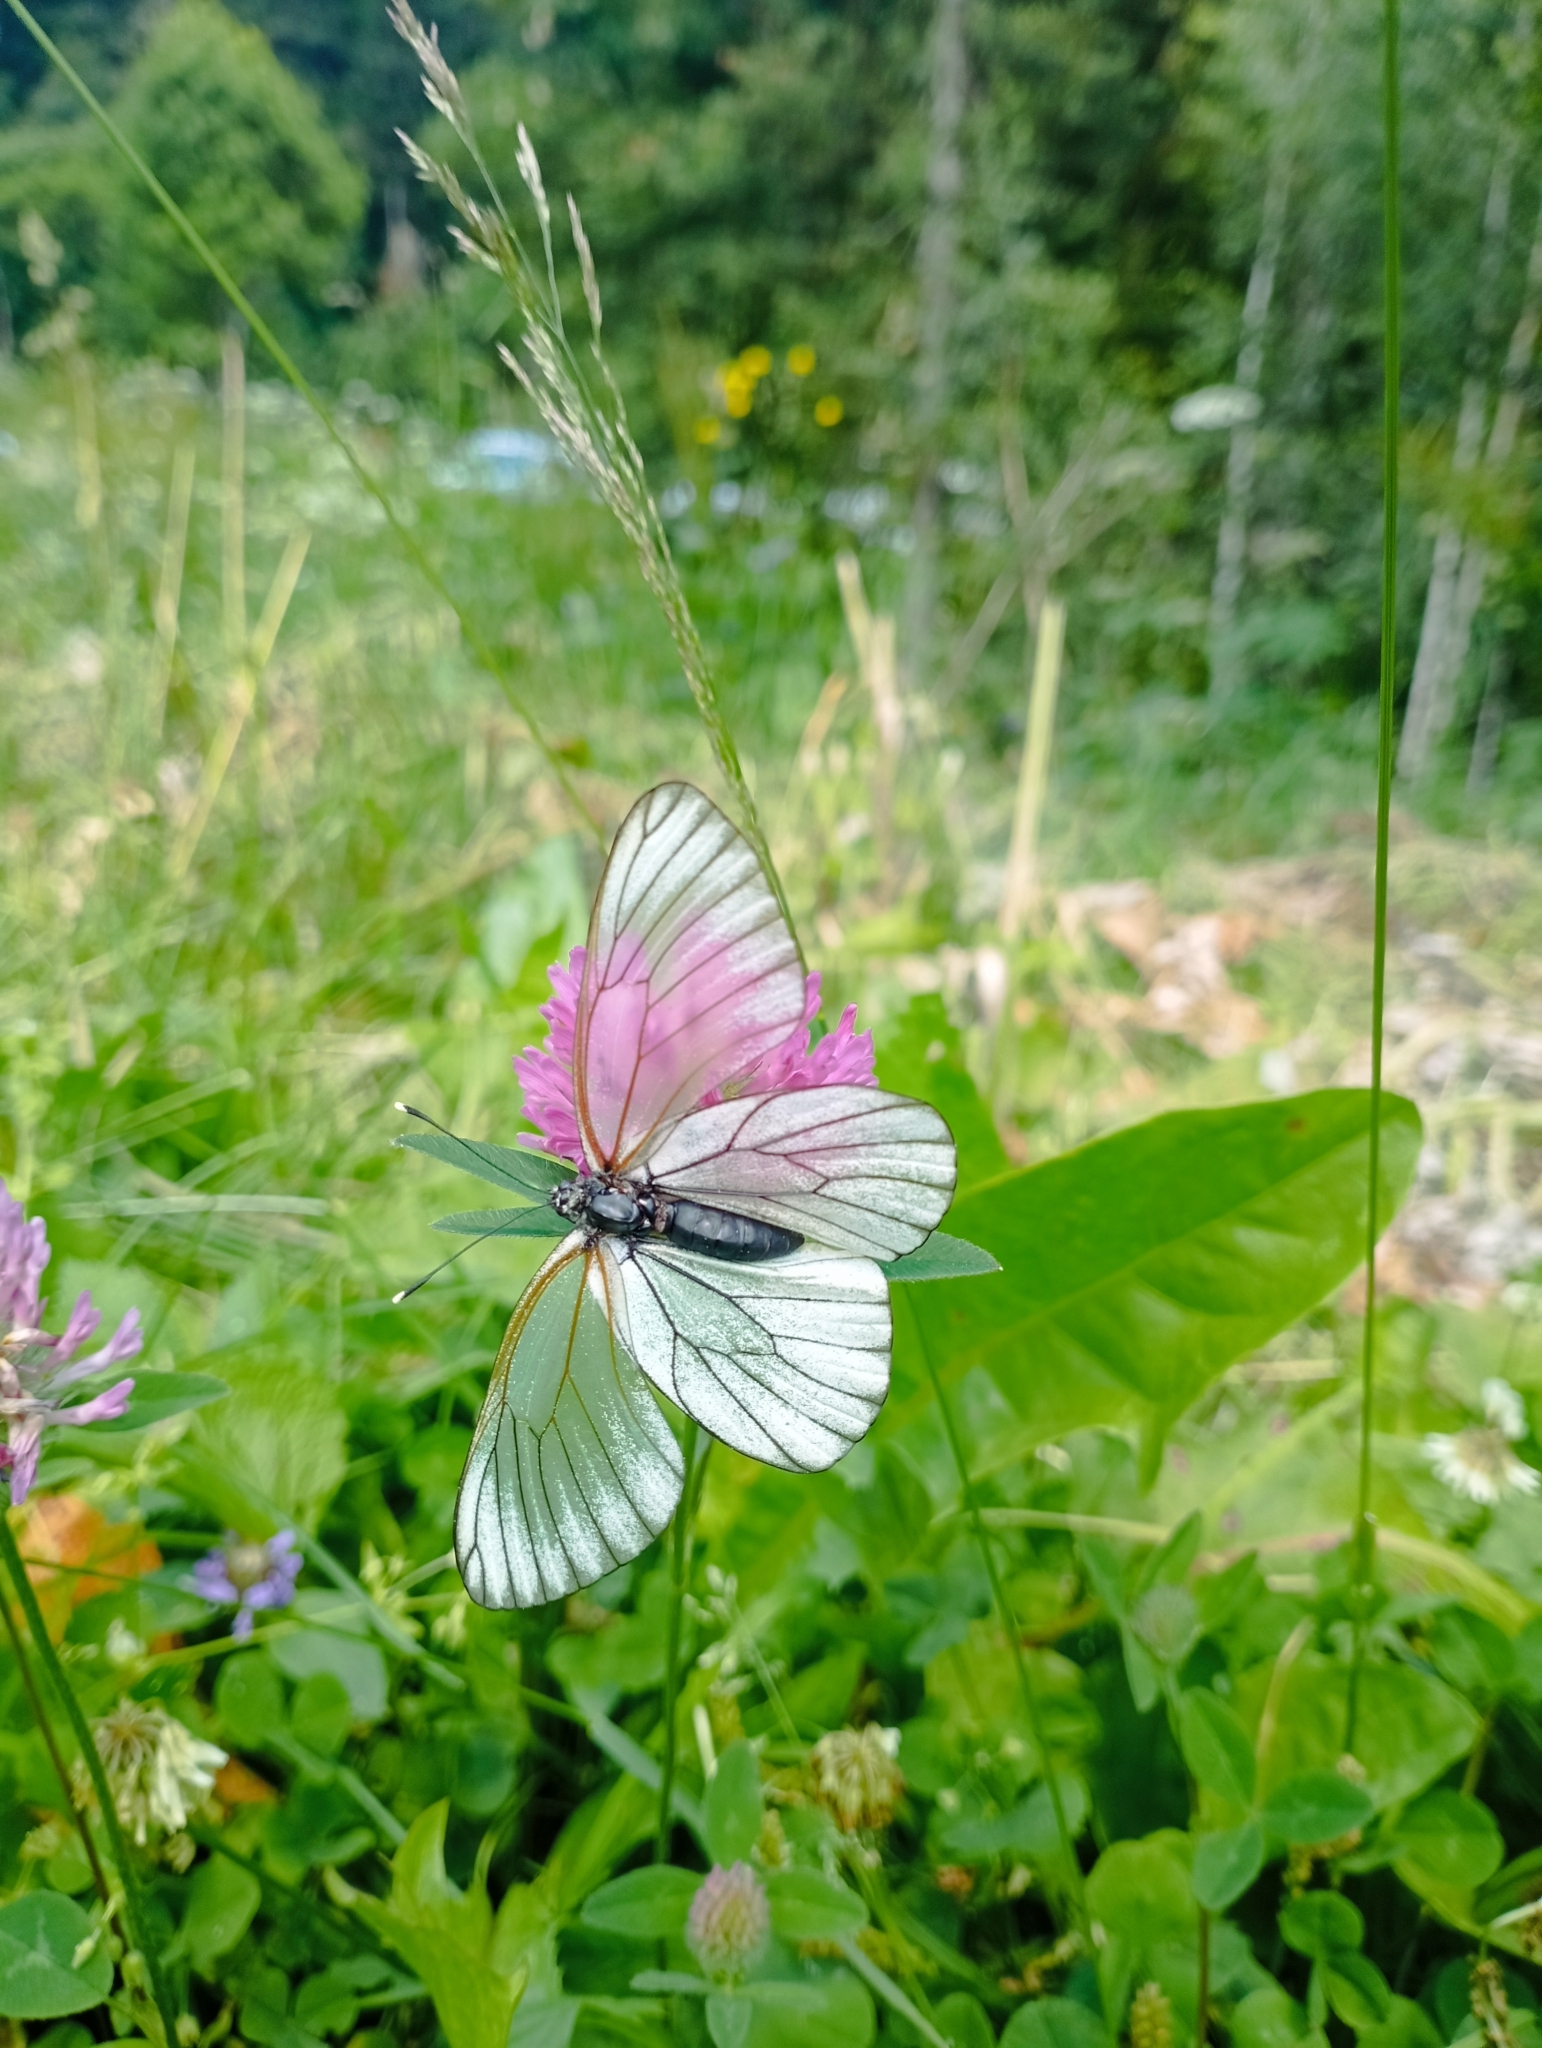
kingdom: Animalia
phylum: Arthropoda
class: Insecta
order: Lepidoptera
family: Pieridae
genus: Aporia
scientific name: Aporia crataegi
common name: Black-veined white
